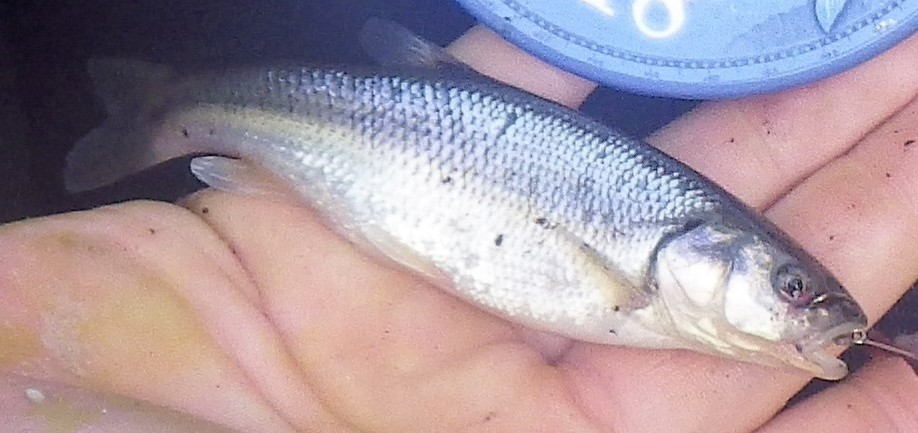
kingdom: Animalia
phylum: Chordata
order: Cypriniformes
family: Cyprinidae
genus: Semotilus
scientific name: Semotilus atromaculatus
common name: Creek chub
